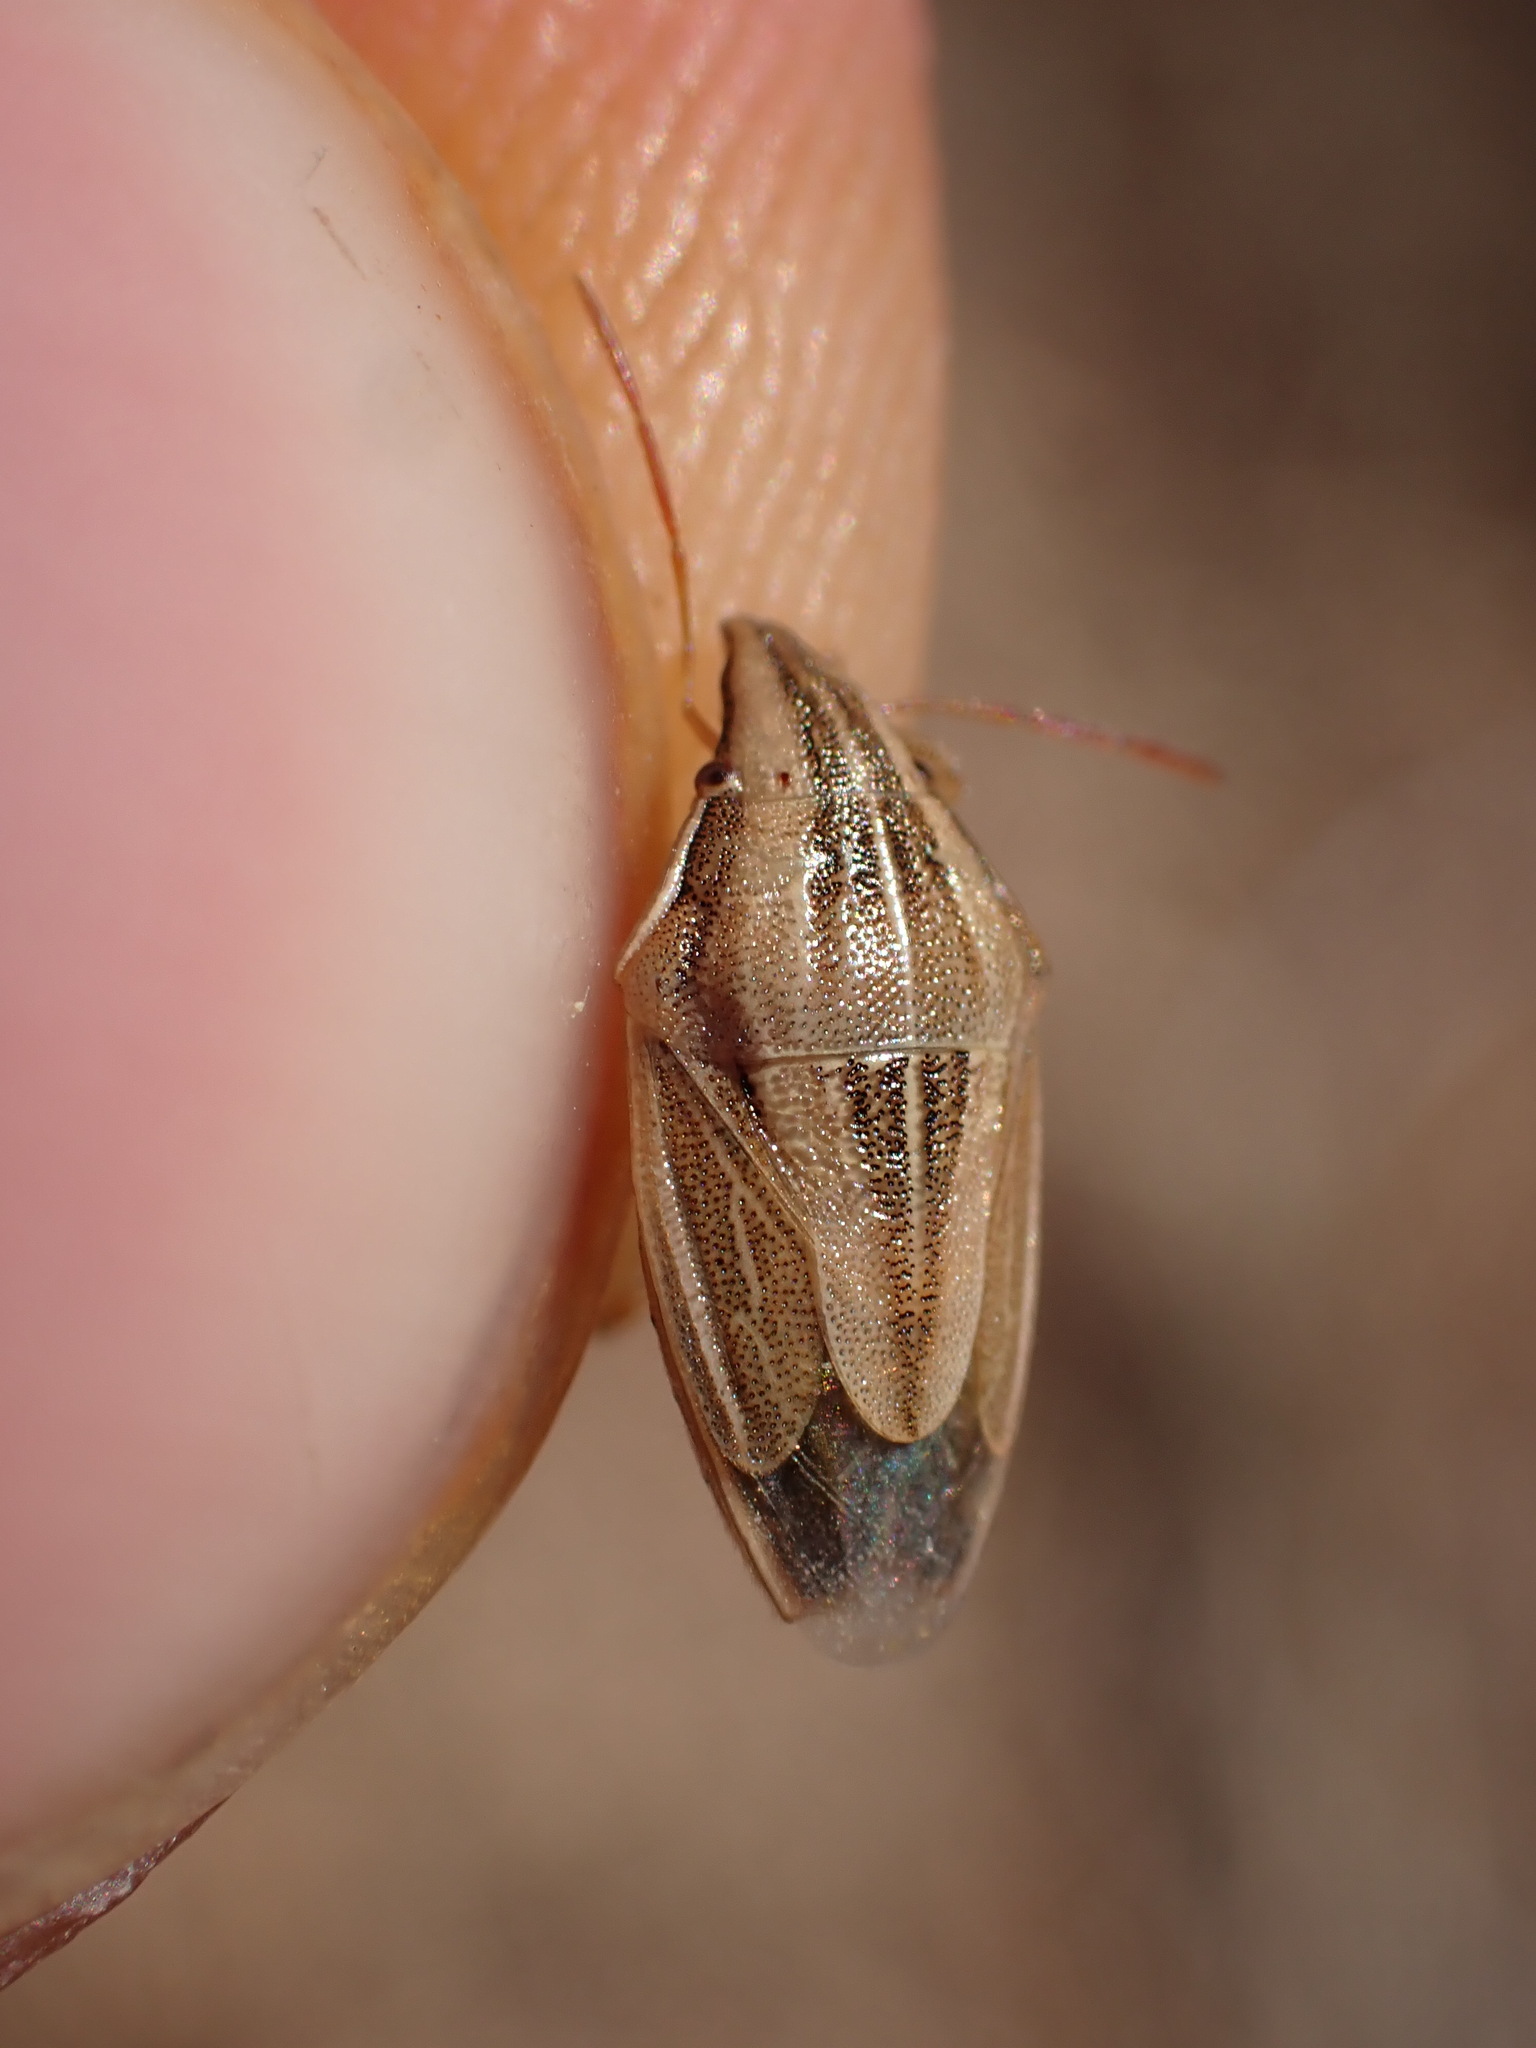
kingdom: Animalia
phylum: Arthropoda
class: Insecta
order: Hemiptera
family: Pentatomidae
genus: Aelia
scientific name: Aelia acuminata
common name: Bishop's mitre
